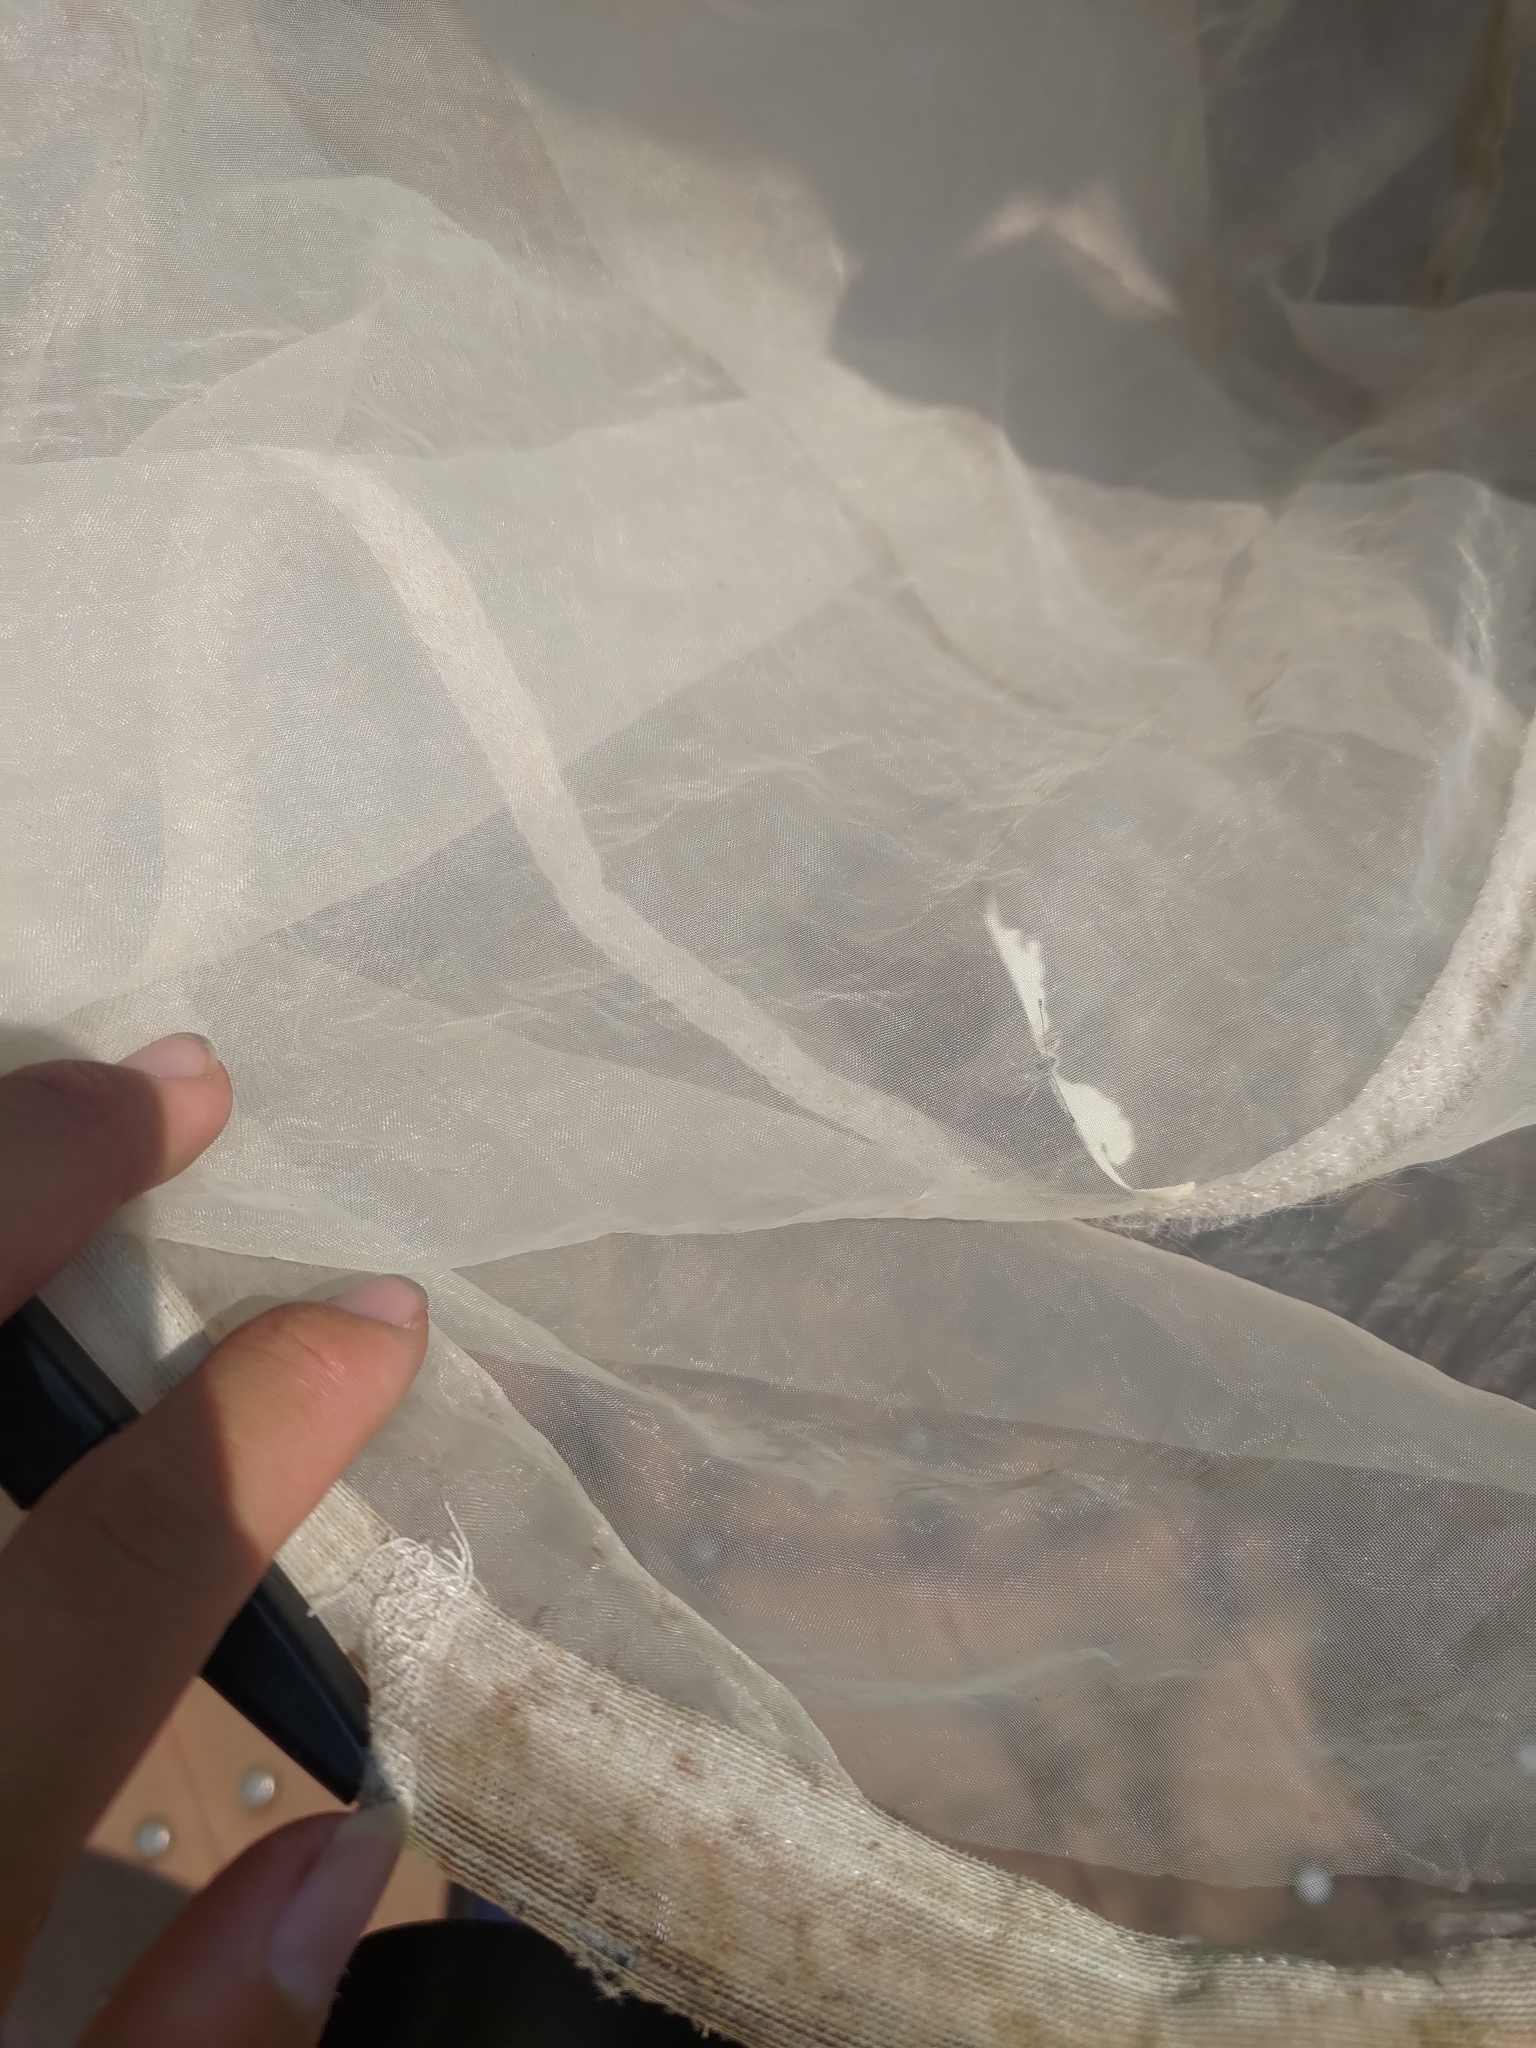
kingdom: Animalia
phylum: Arthropoda
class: Insecta
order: Lepidoptera
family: Pieridae
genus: Pieris
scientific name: Pieris rapae
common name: Small white
